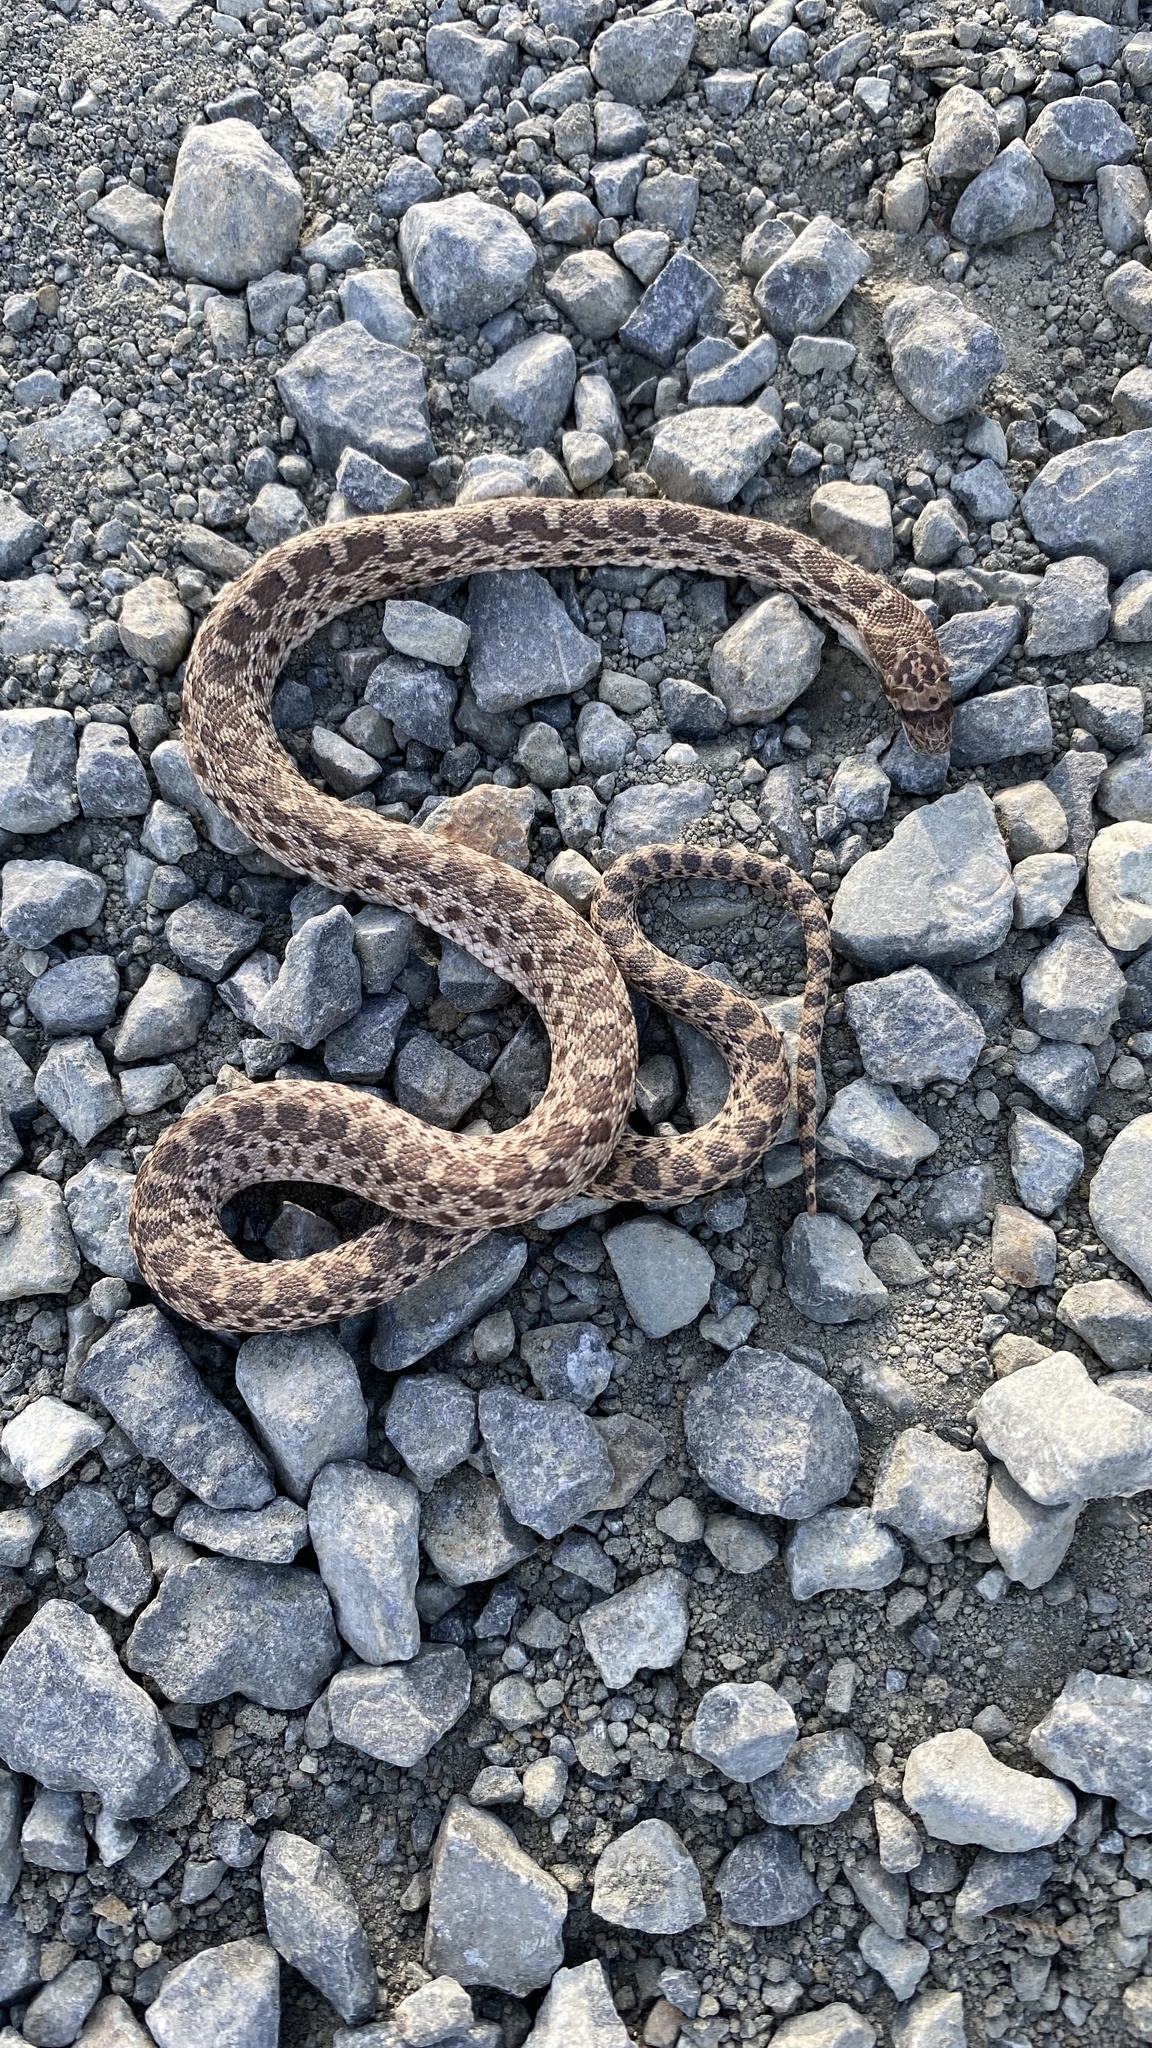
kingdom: Animalia
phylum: Chordata
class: Squamata
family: Colubridae
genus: Pituophis
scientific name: Pituophis catenifer
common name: Gopher snake
